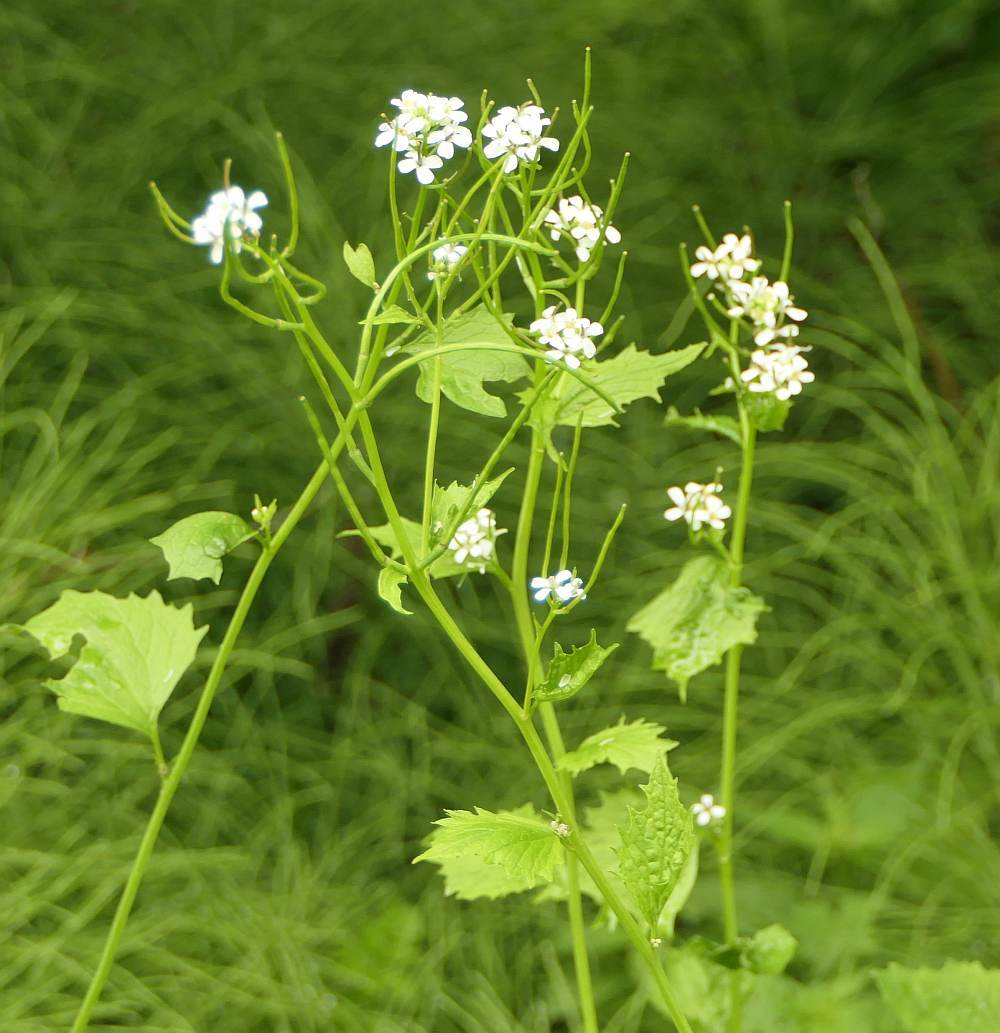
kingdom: Plantae
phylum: Tracheophyta
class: Magnoliopsida
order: Brassicales
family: Brassicaceae
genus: Alliaria
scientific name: Alliaria petiolata
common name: Garlic mustard
